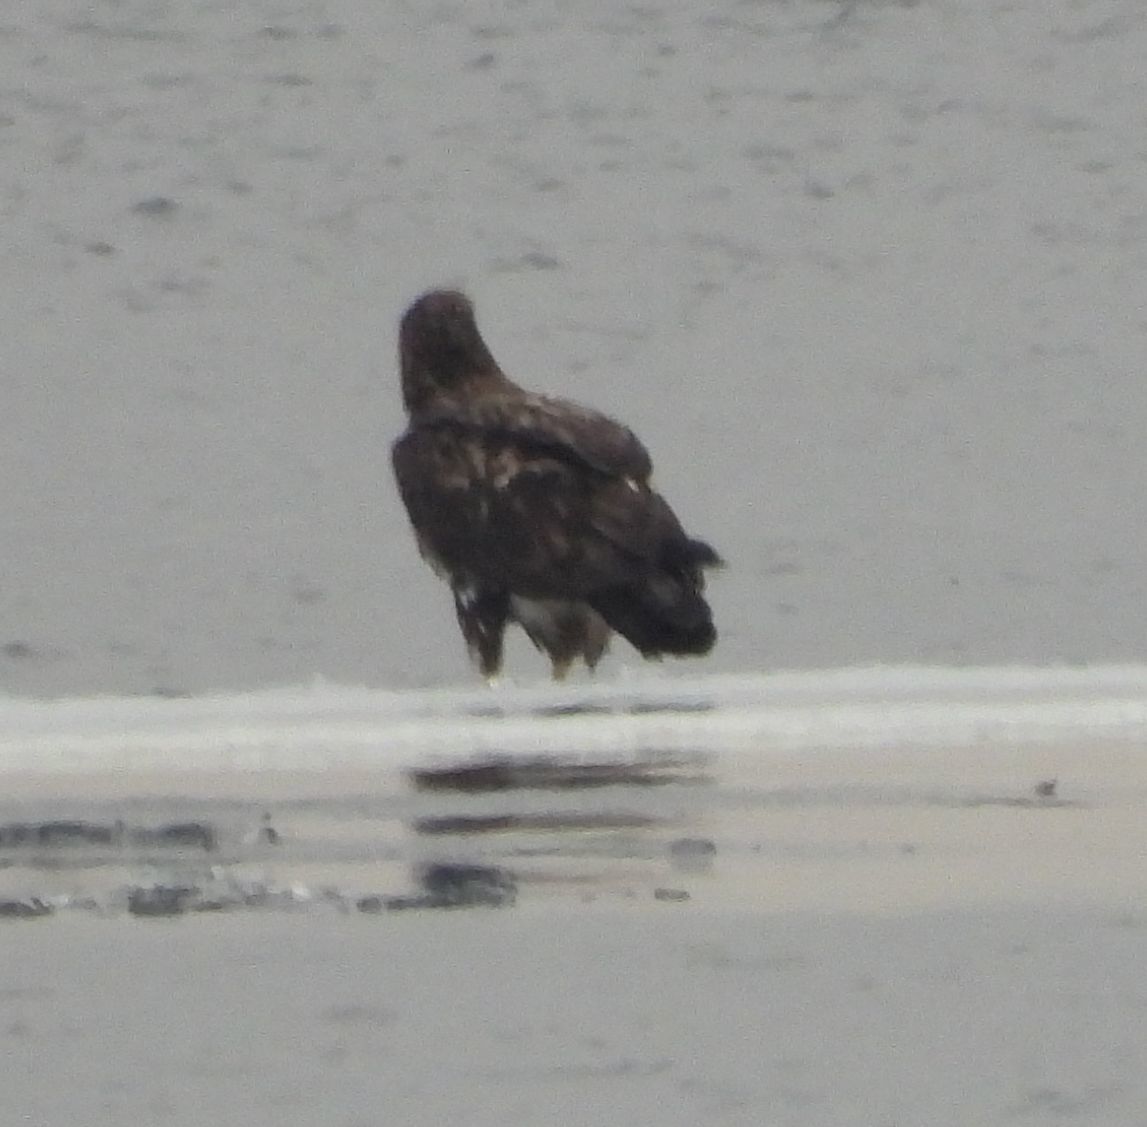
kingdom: Animalia
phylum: Chordata
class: Aves
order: Accipitriformes
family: Accipitridae
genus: Haliaeetus
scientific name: Haliaeetus leucocephalus
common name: Bald eagle
